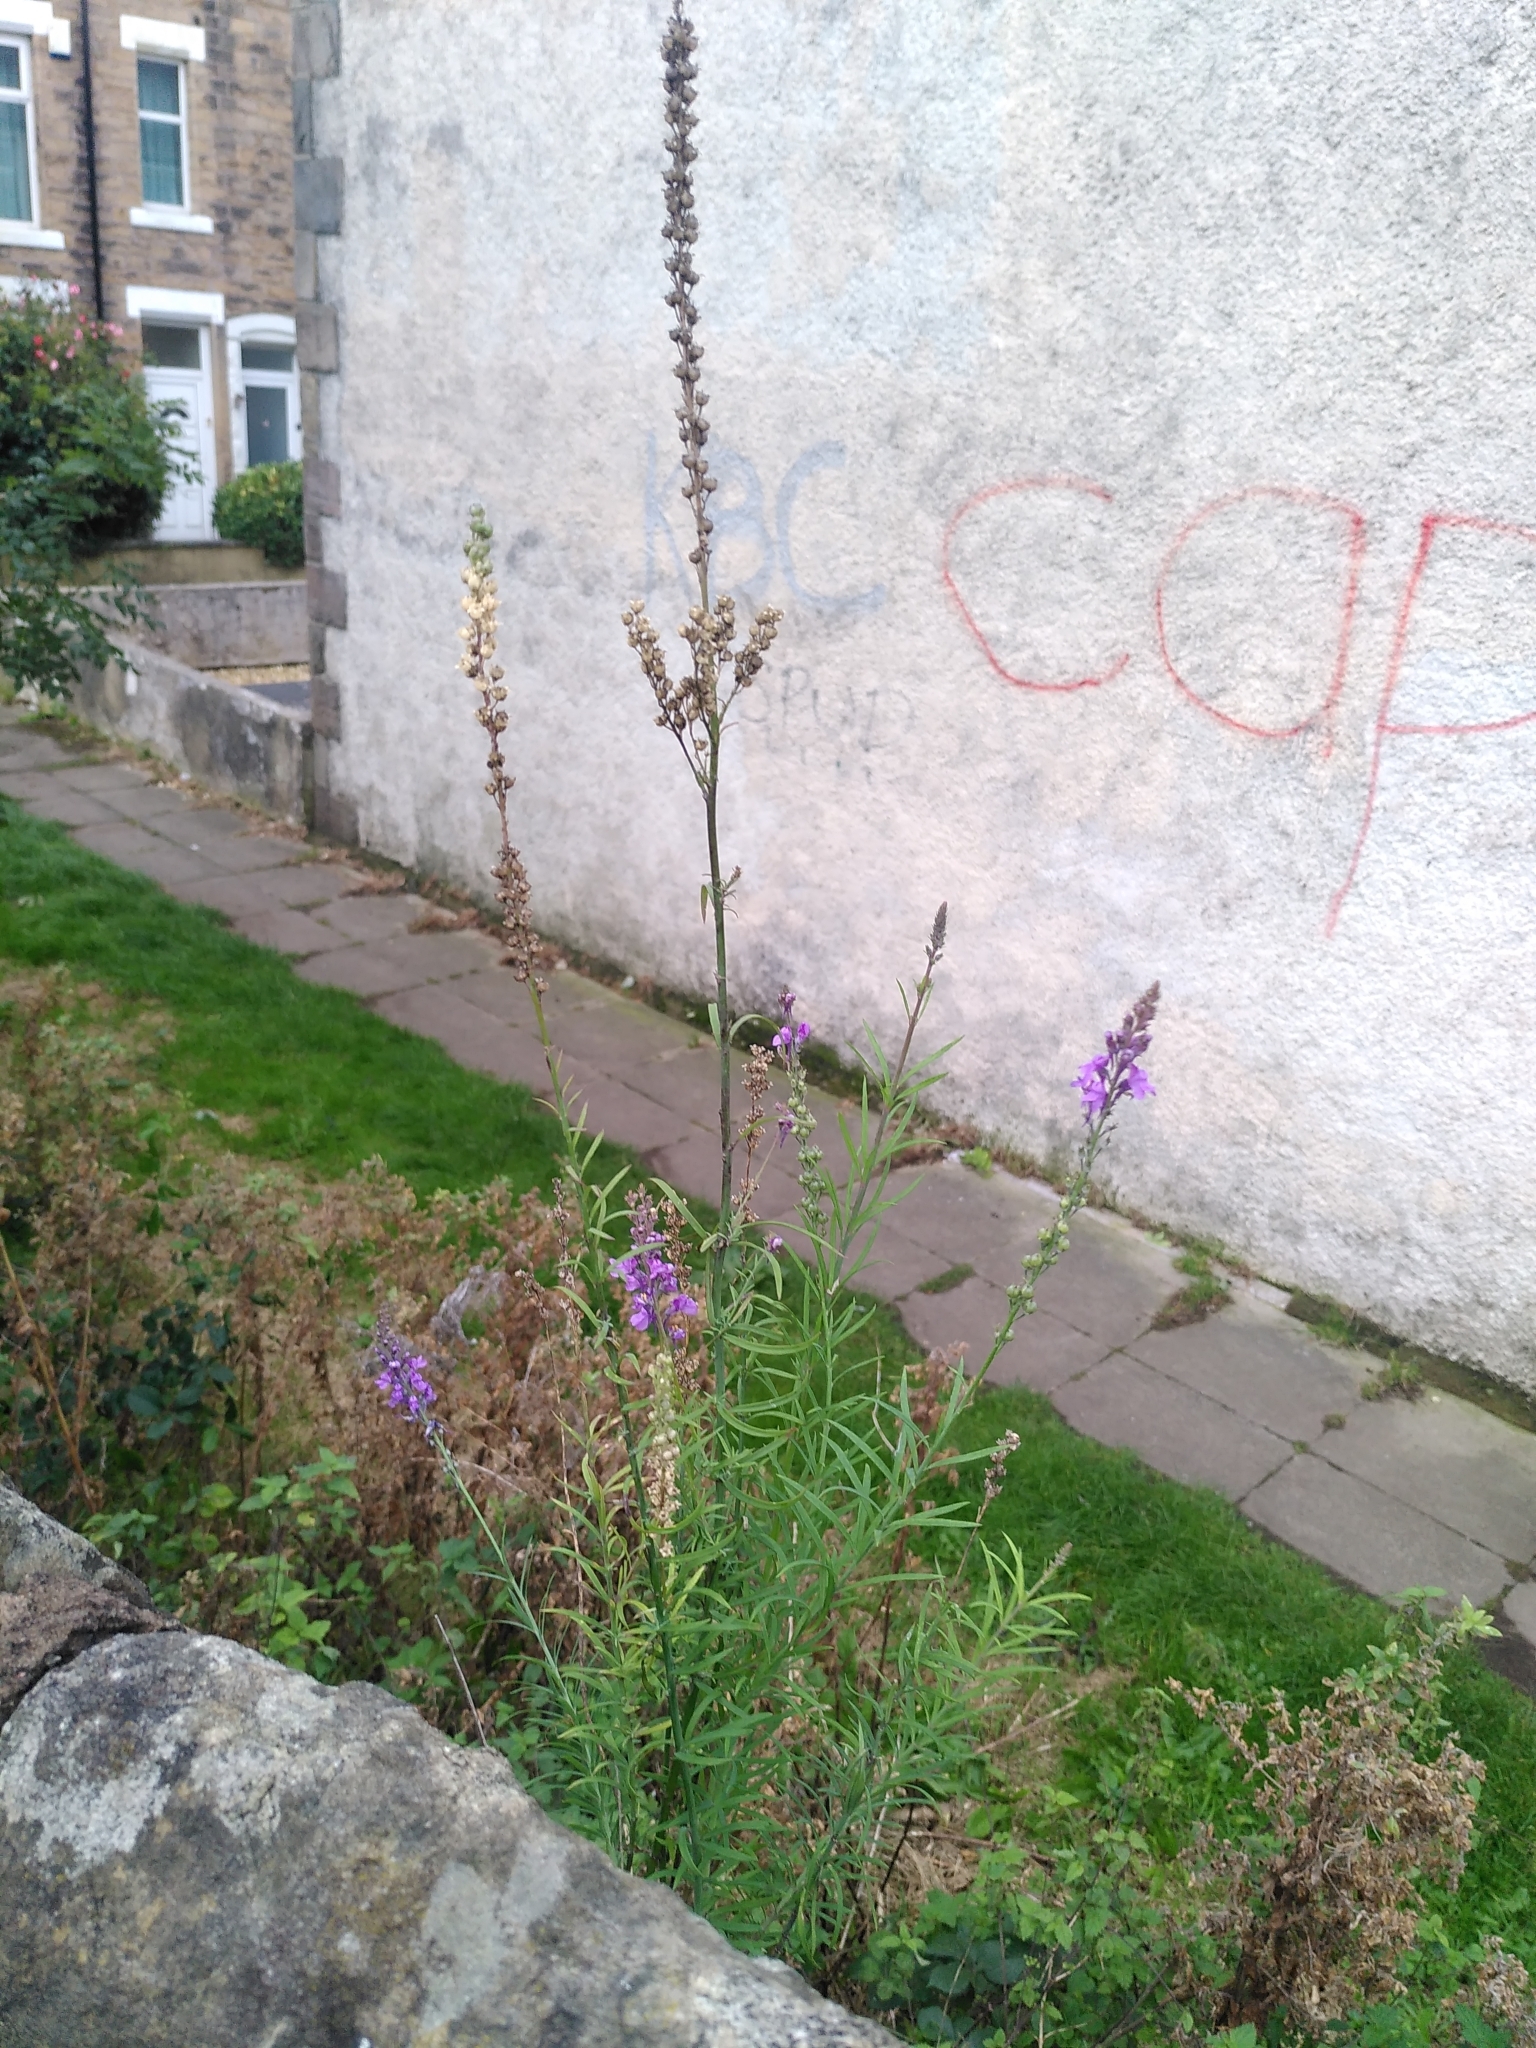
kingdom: Plantae
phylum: Tracheophyta
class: Magnoliopsida
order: Lamiales
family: Plantaginaceae
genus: Linaria
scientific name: Linaria purpurea
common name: Purple toadflax
